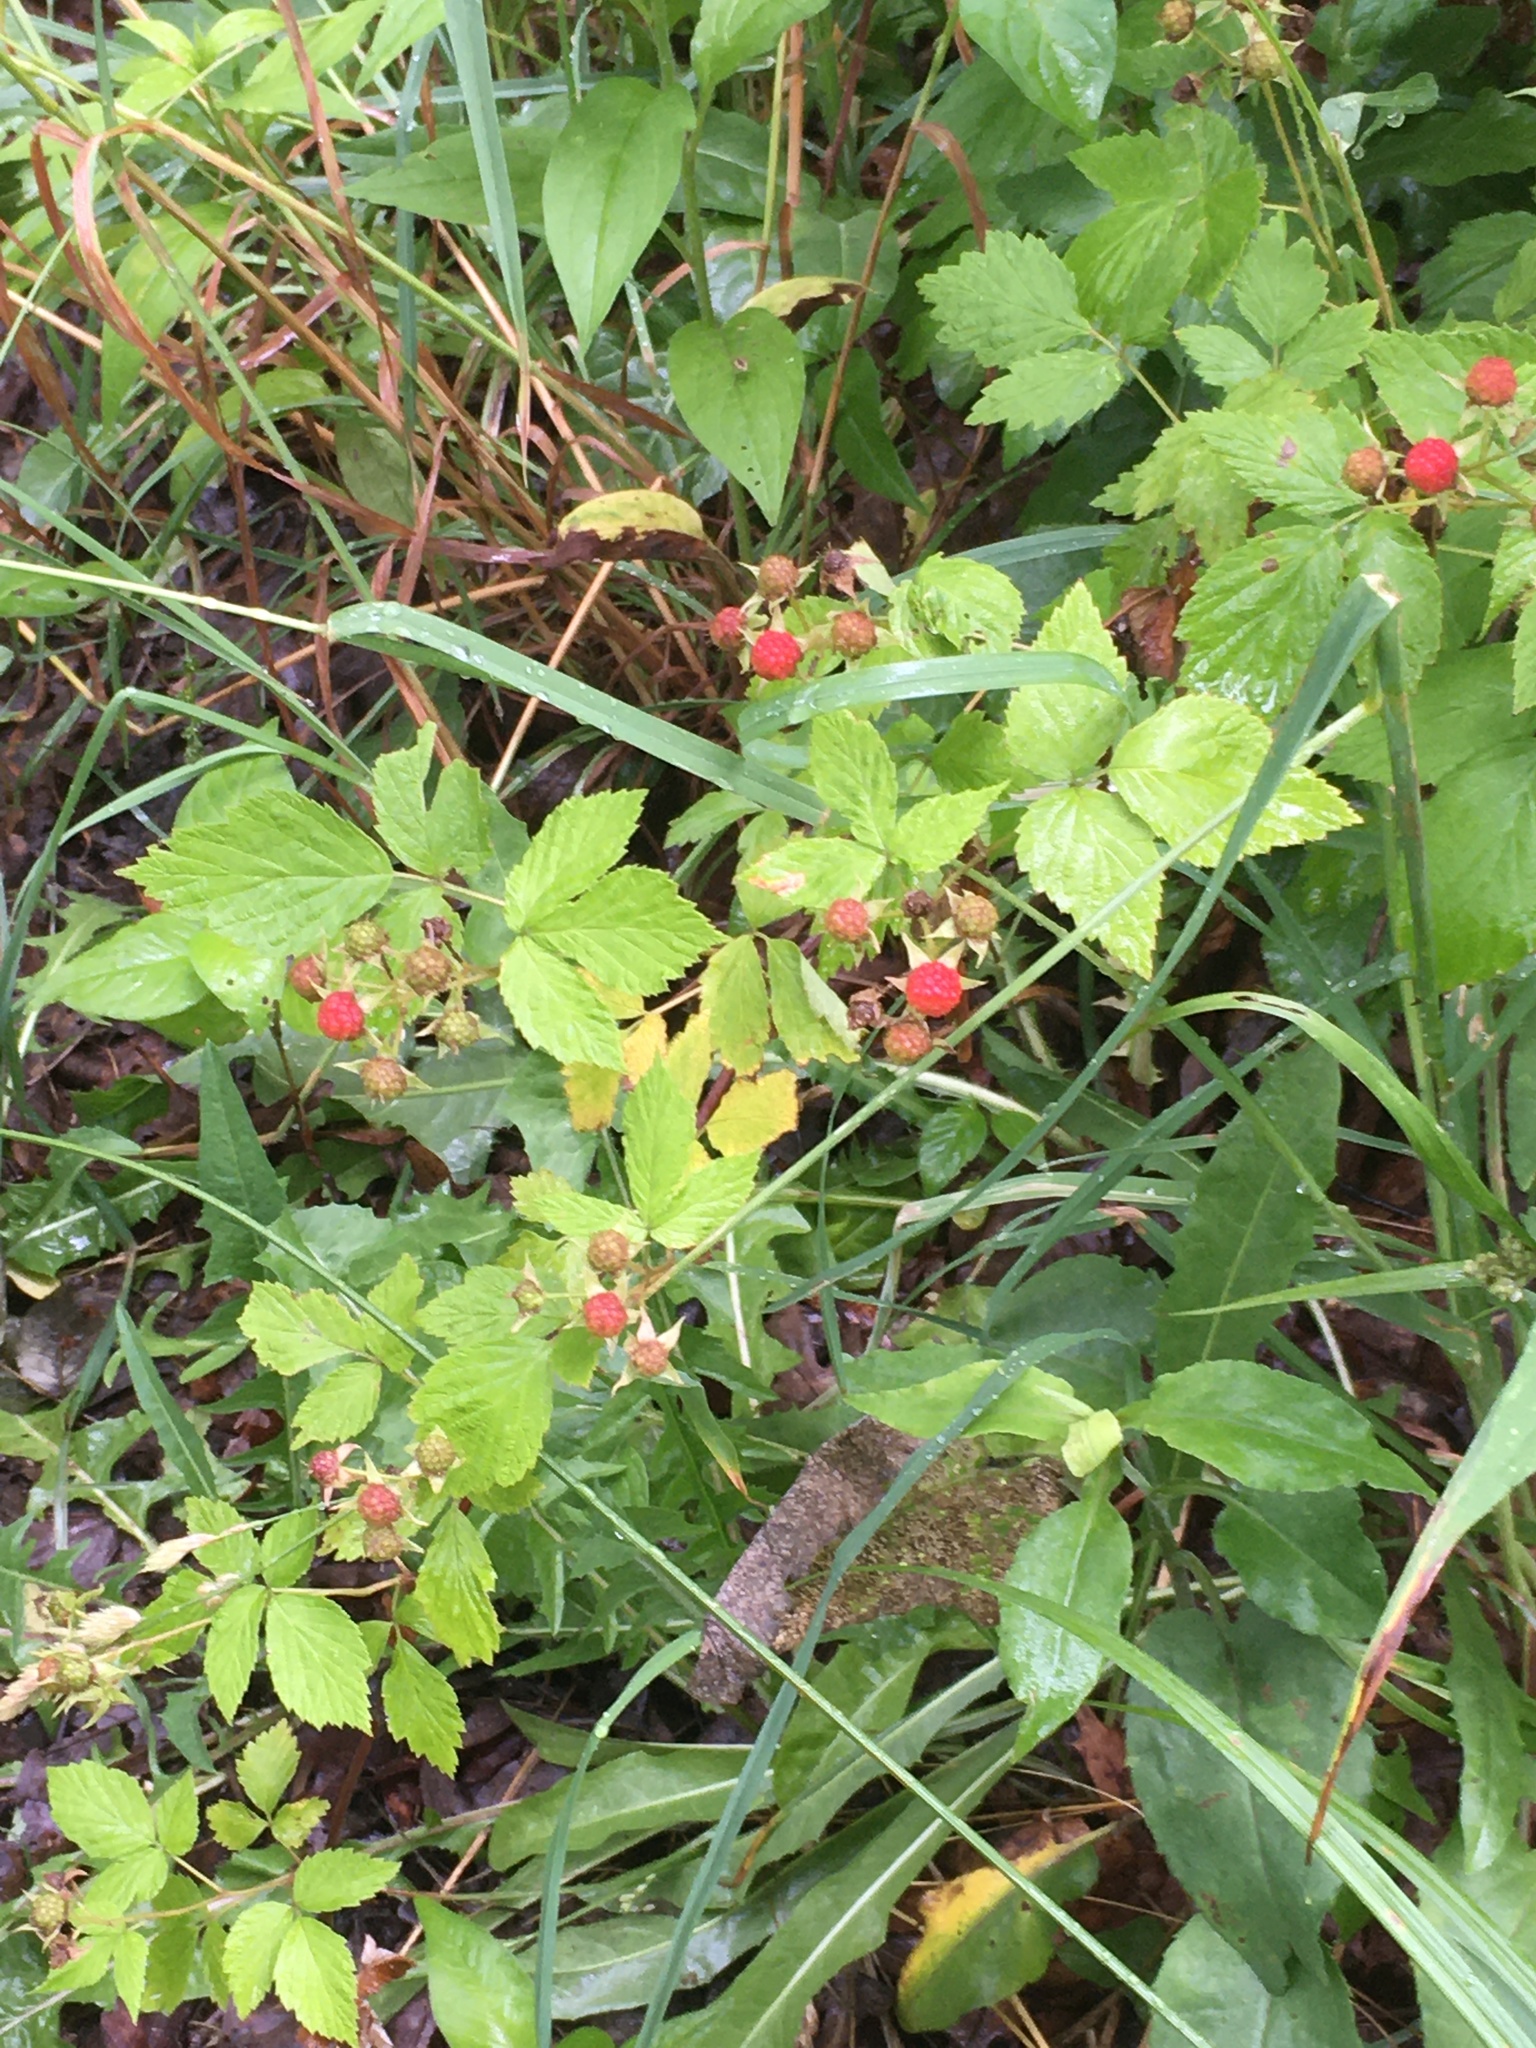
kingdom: Plantae
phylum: Tracheophyta
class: Magnoliopsida
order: Rosales
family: Rosaceae
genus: Rubus
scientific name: Rubus occidentalis
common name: Black raspberry
